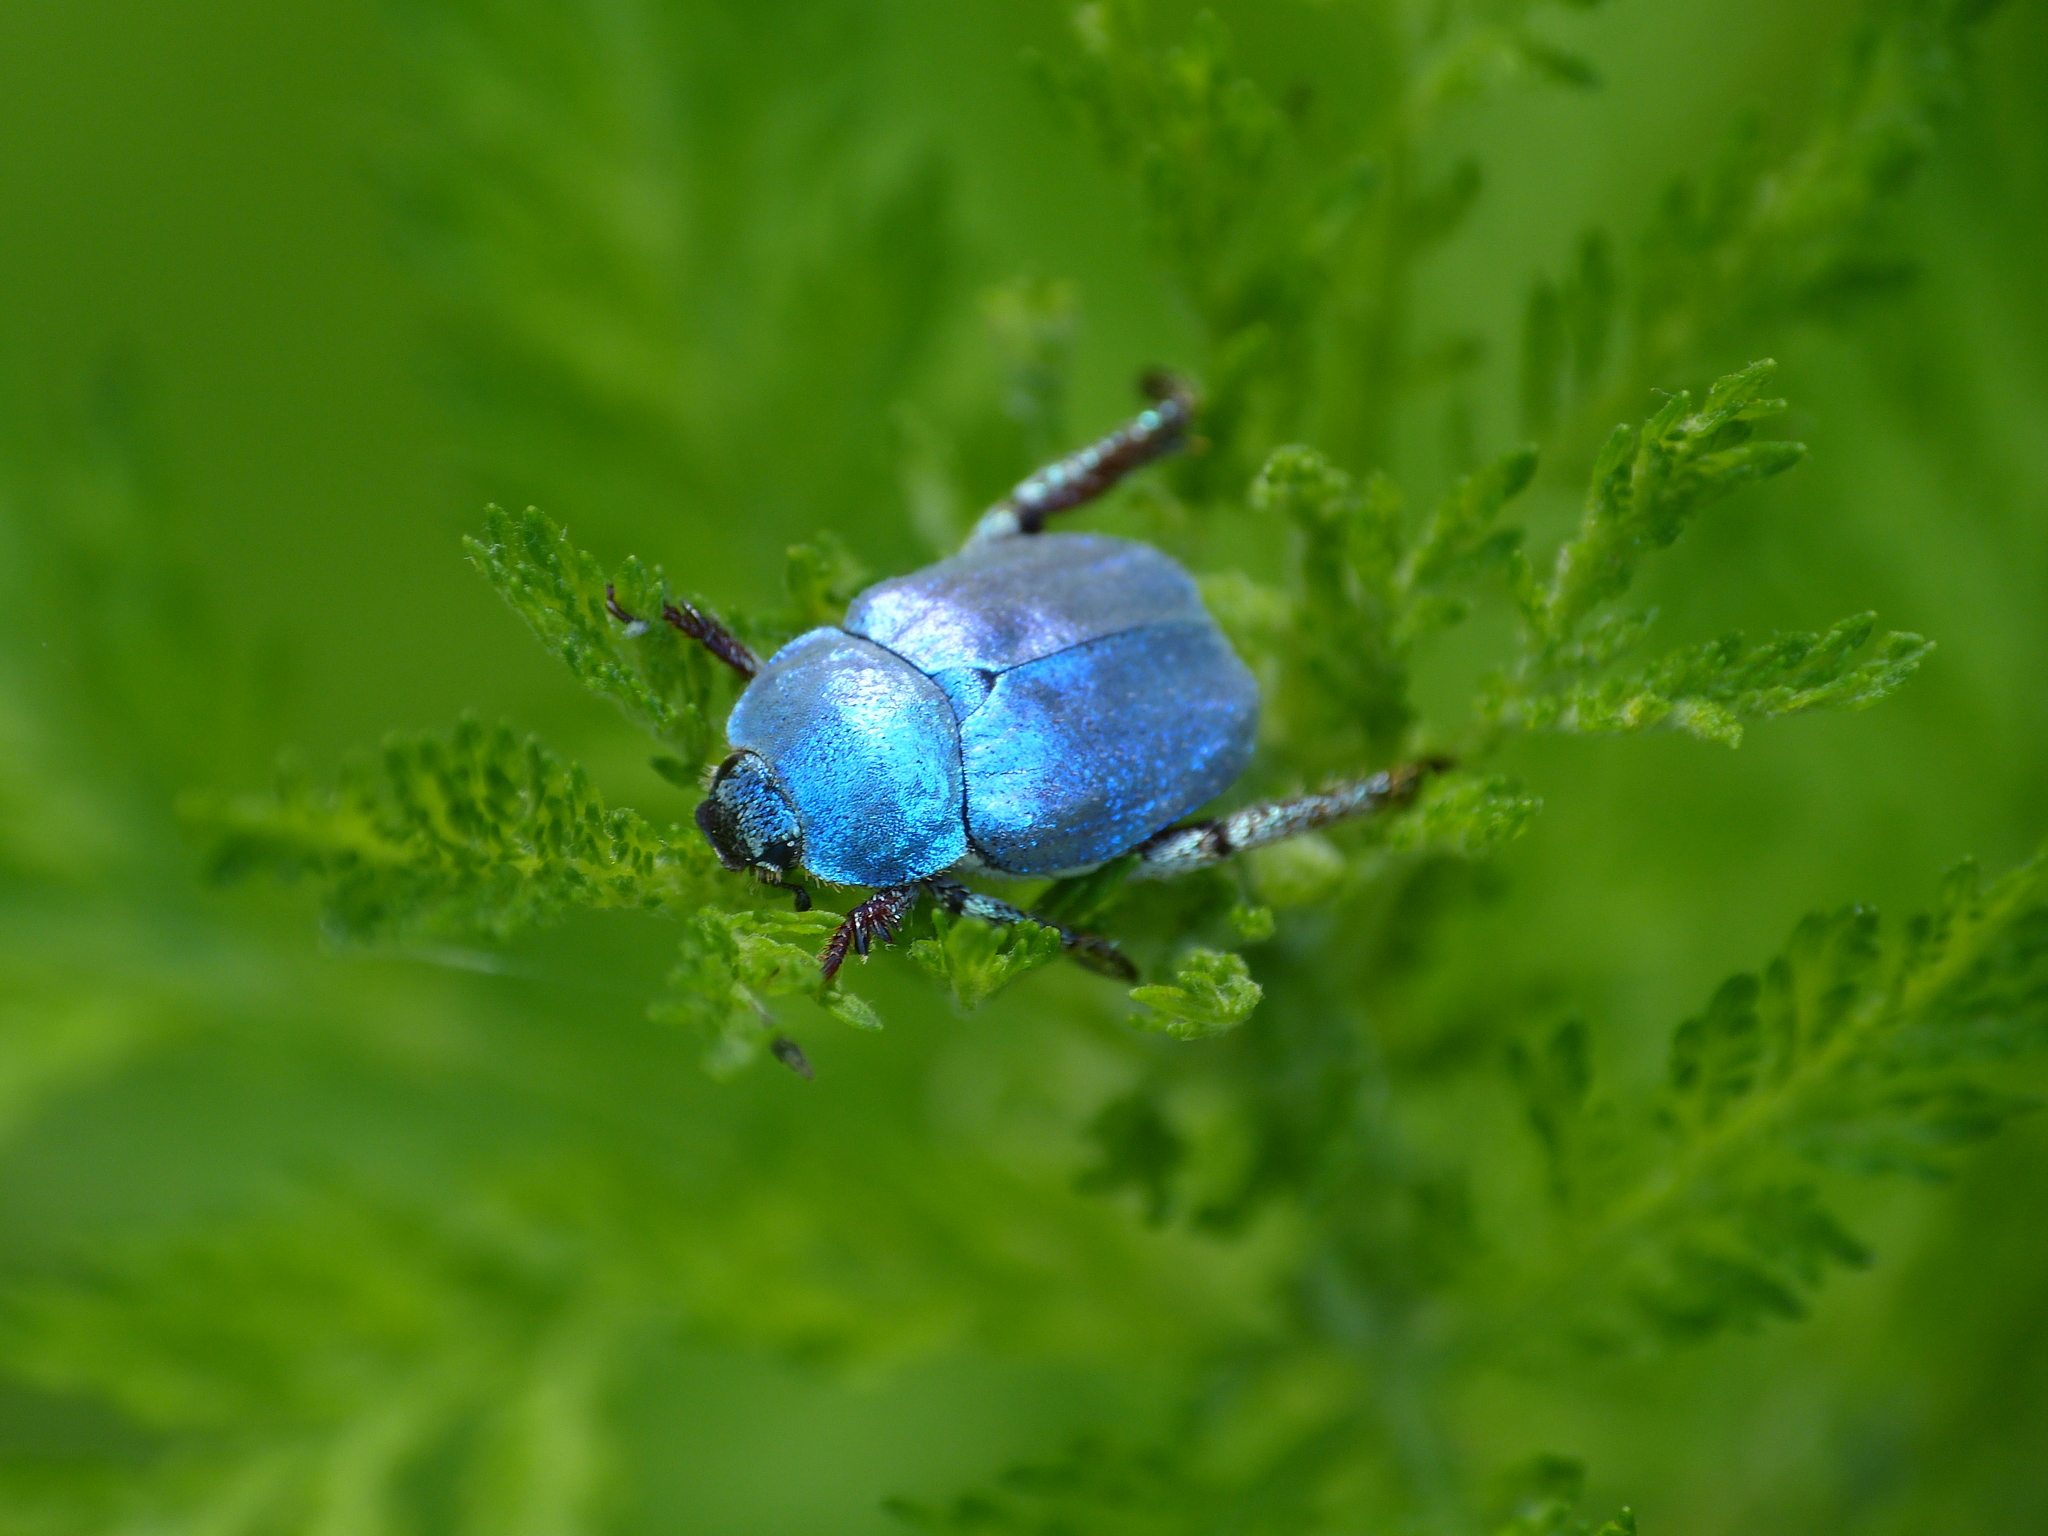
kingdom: Animalia
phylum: Arthropoda
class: Insecta
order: Coleoptera
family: Scarabaeidae
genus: Hoplia
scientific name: Hoplia coerulea
